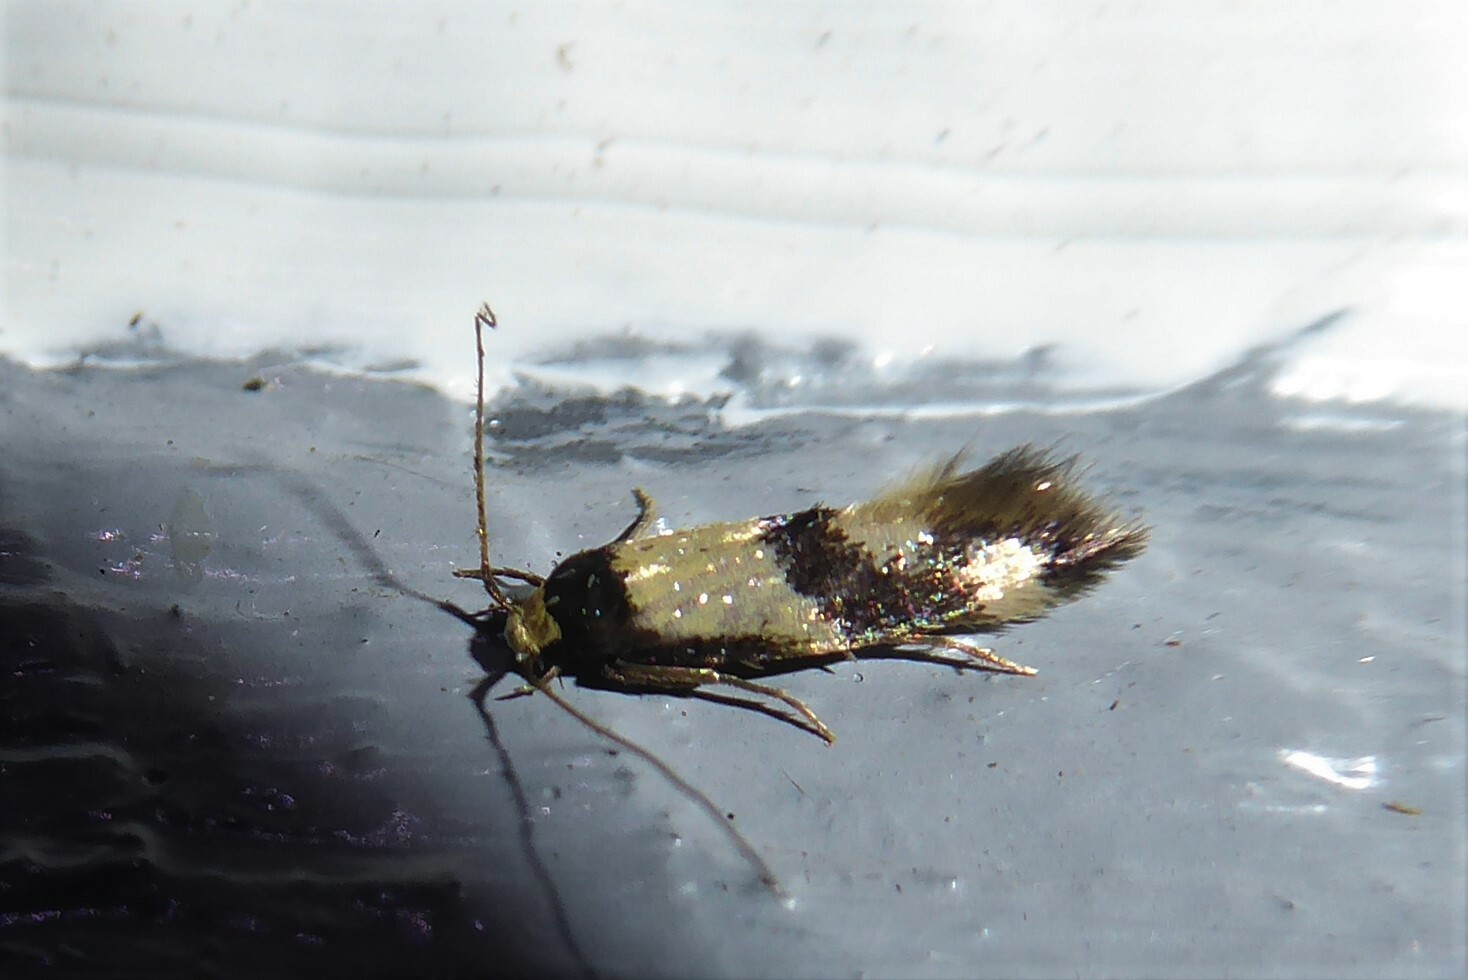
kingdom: Animalia
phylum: Arthropoda
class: Insecta
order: Lepidoptera
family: Tineidae
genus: Opogona
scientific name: Opogona comptella
